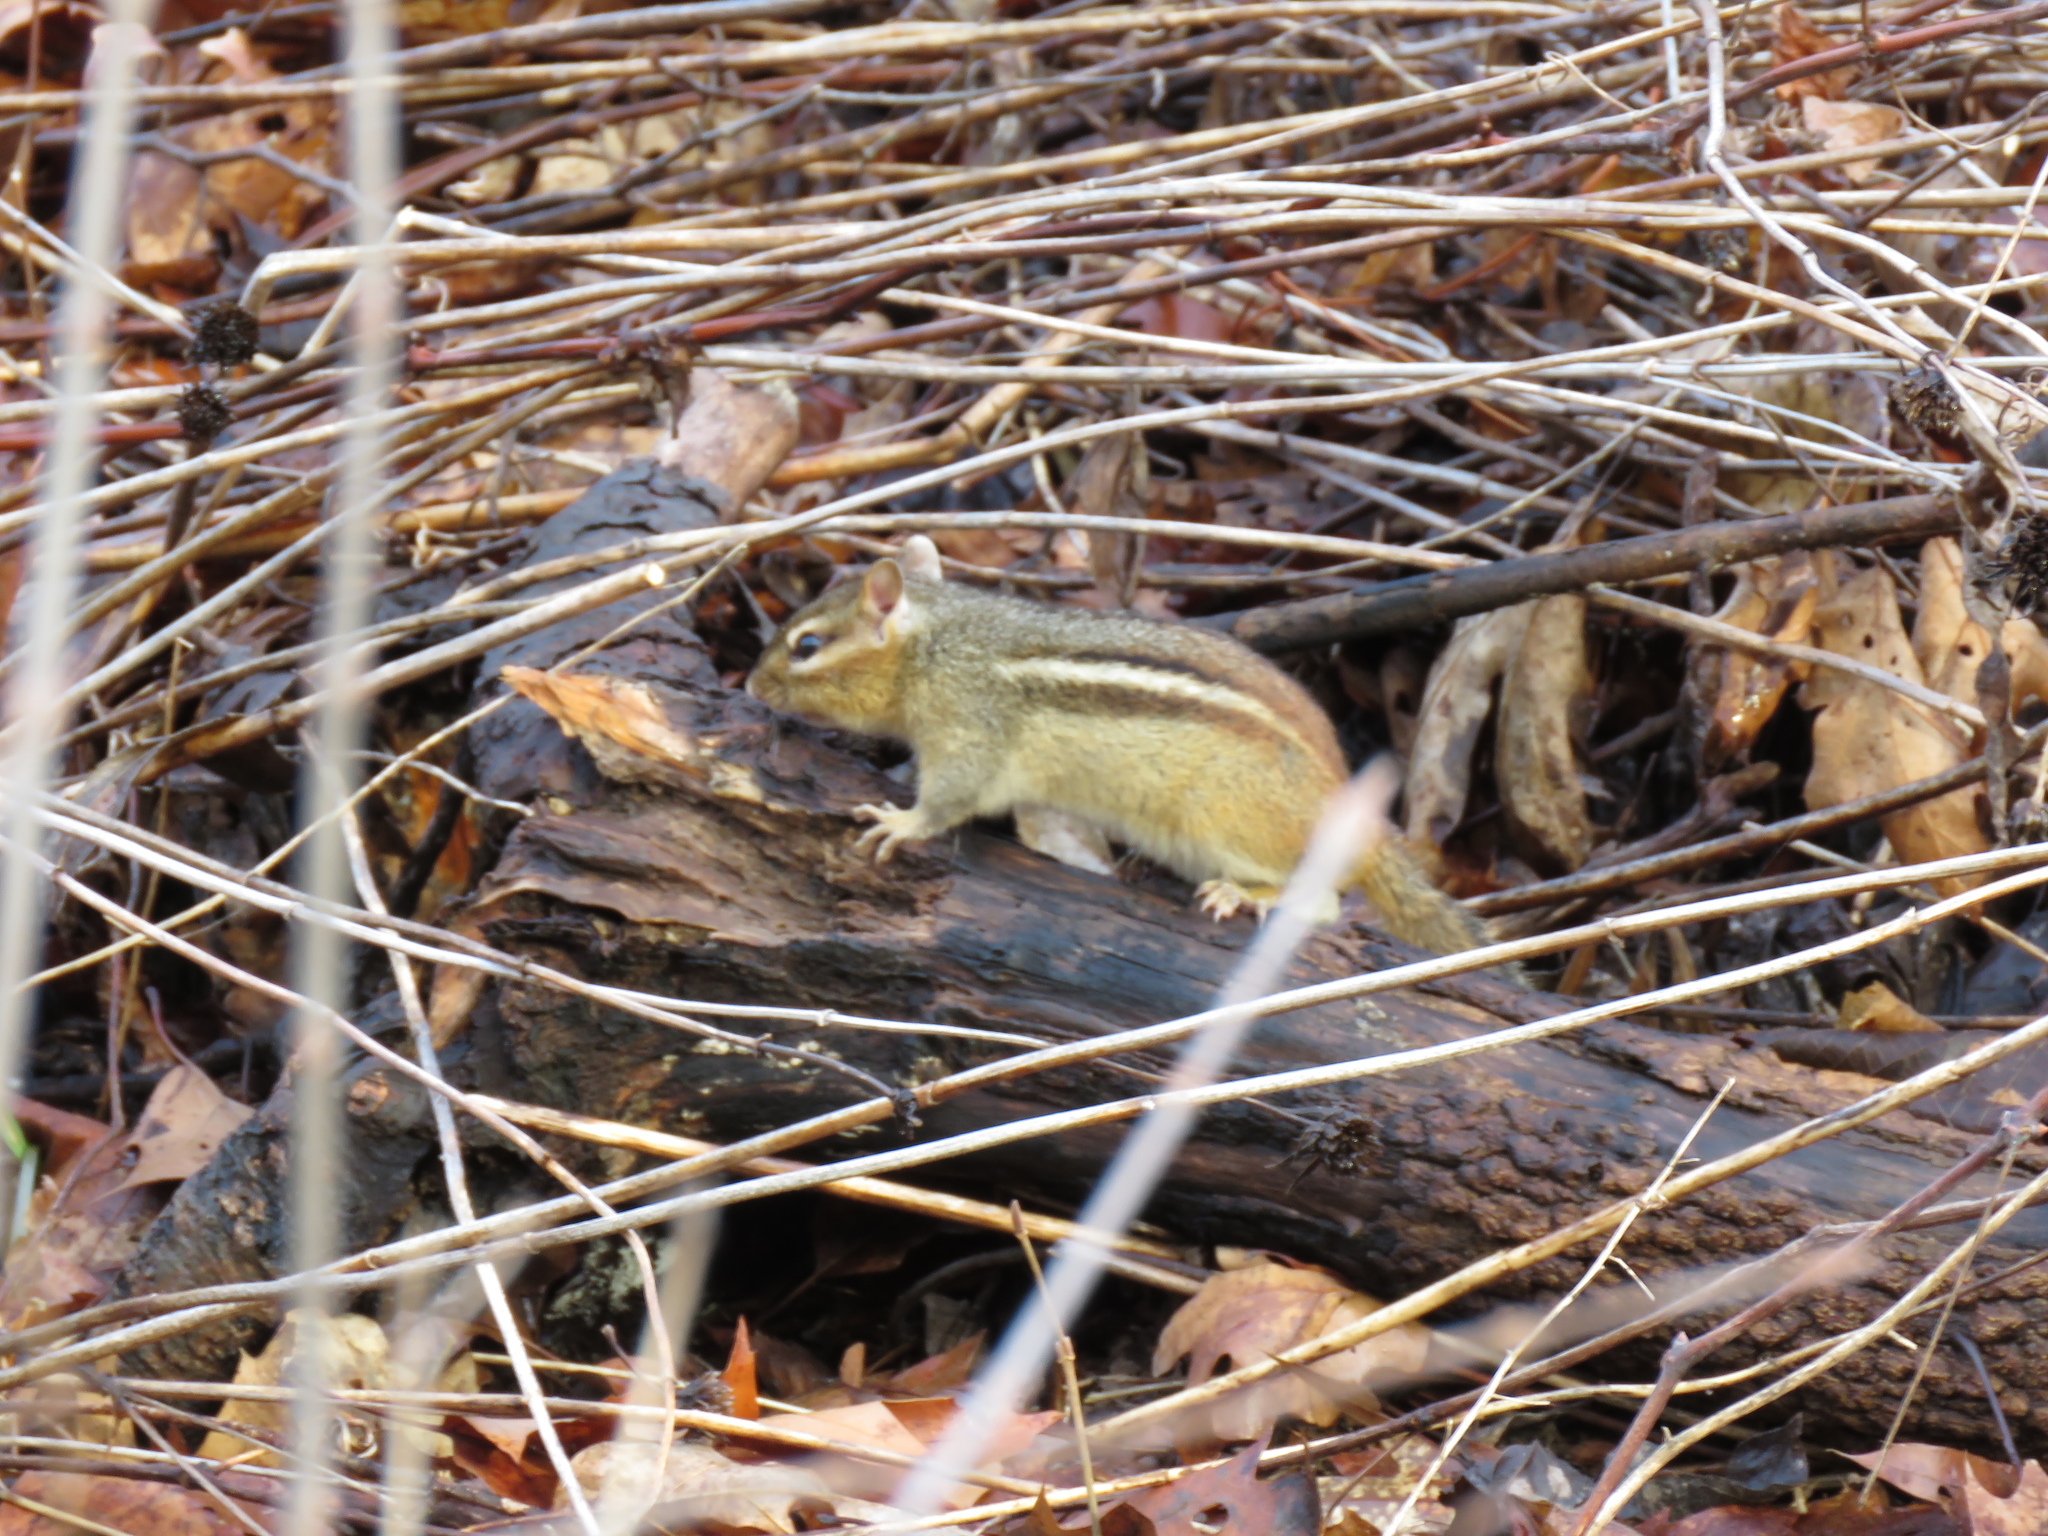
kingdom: Animalia
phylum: Chordata
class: Mammalia
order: Rodentia
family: Sciuridae
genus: Tamias
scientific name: Tamias striatus
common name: Eastern chipmunk
